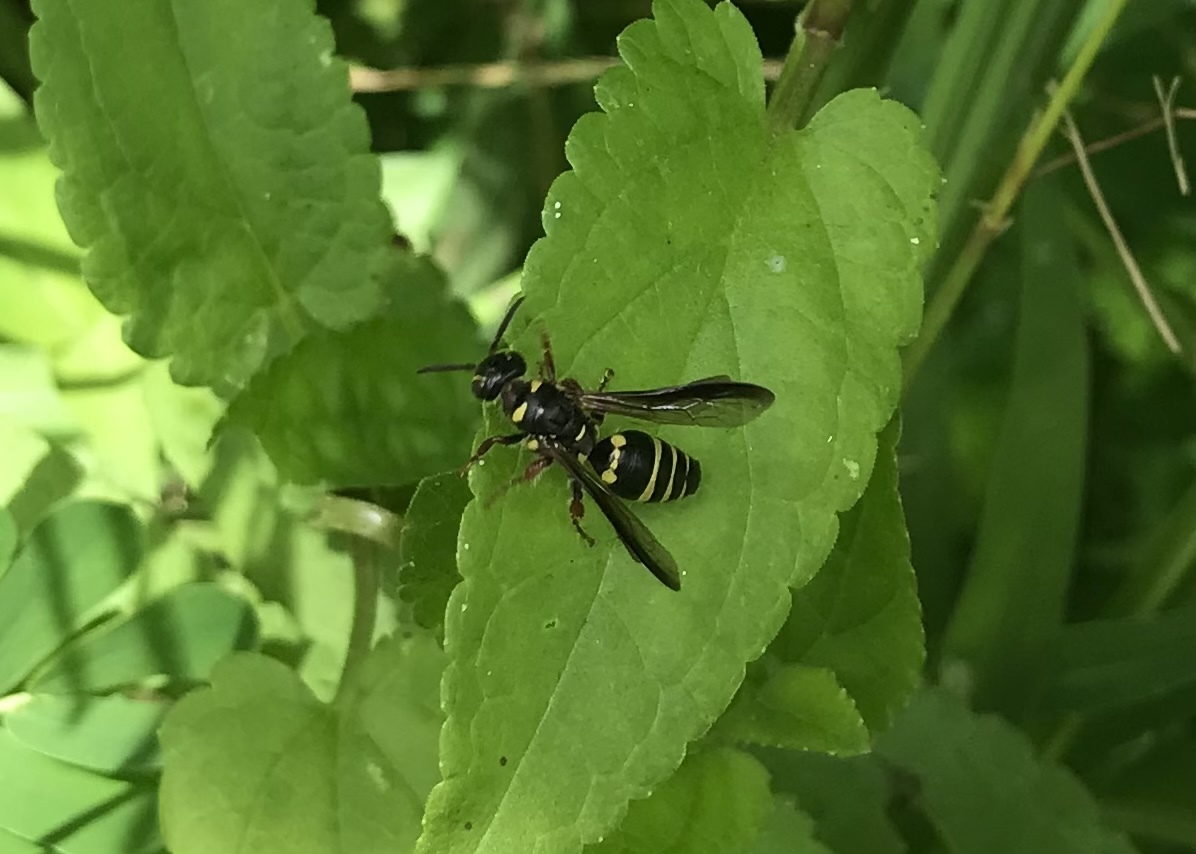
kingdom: Animalia
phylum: Arthropoda
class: Insecta
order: Hymenoptera
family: Tiphiidae
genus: Myzinum
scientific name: Myzinum maculatum
